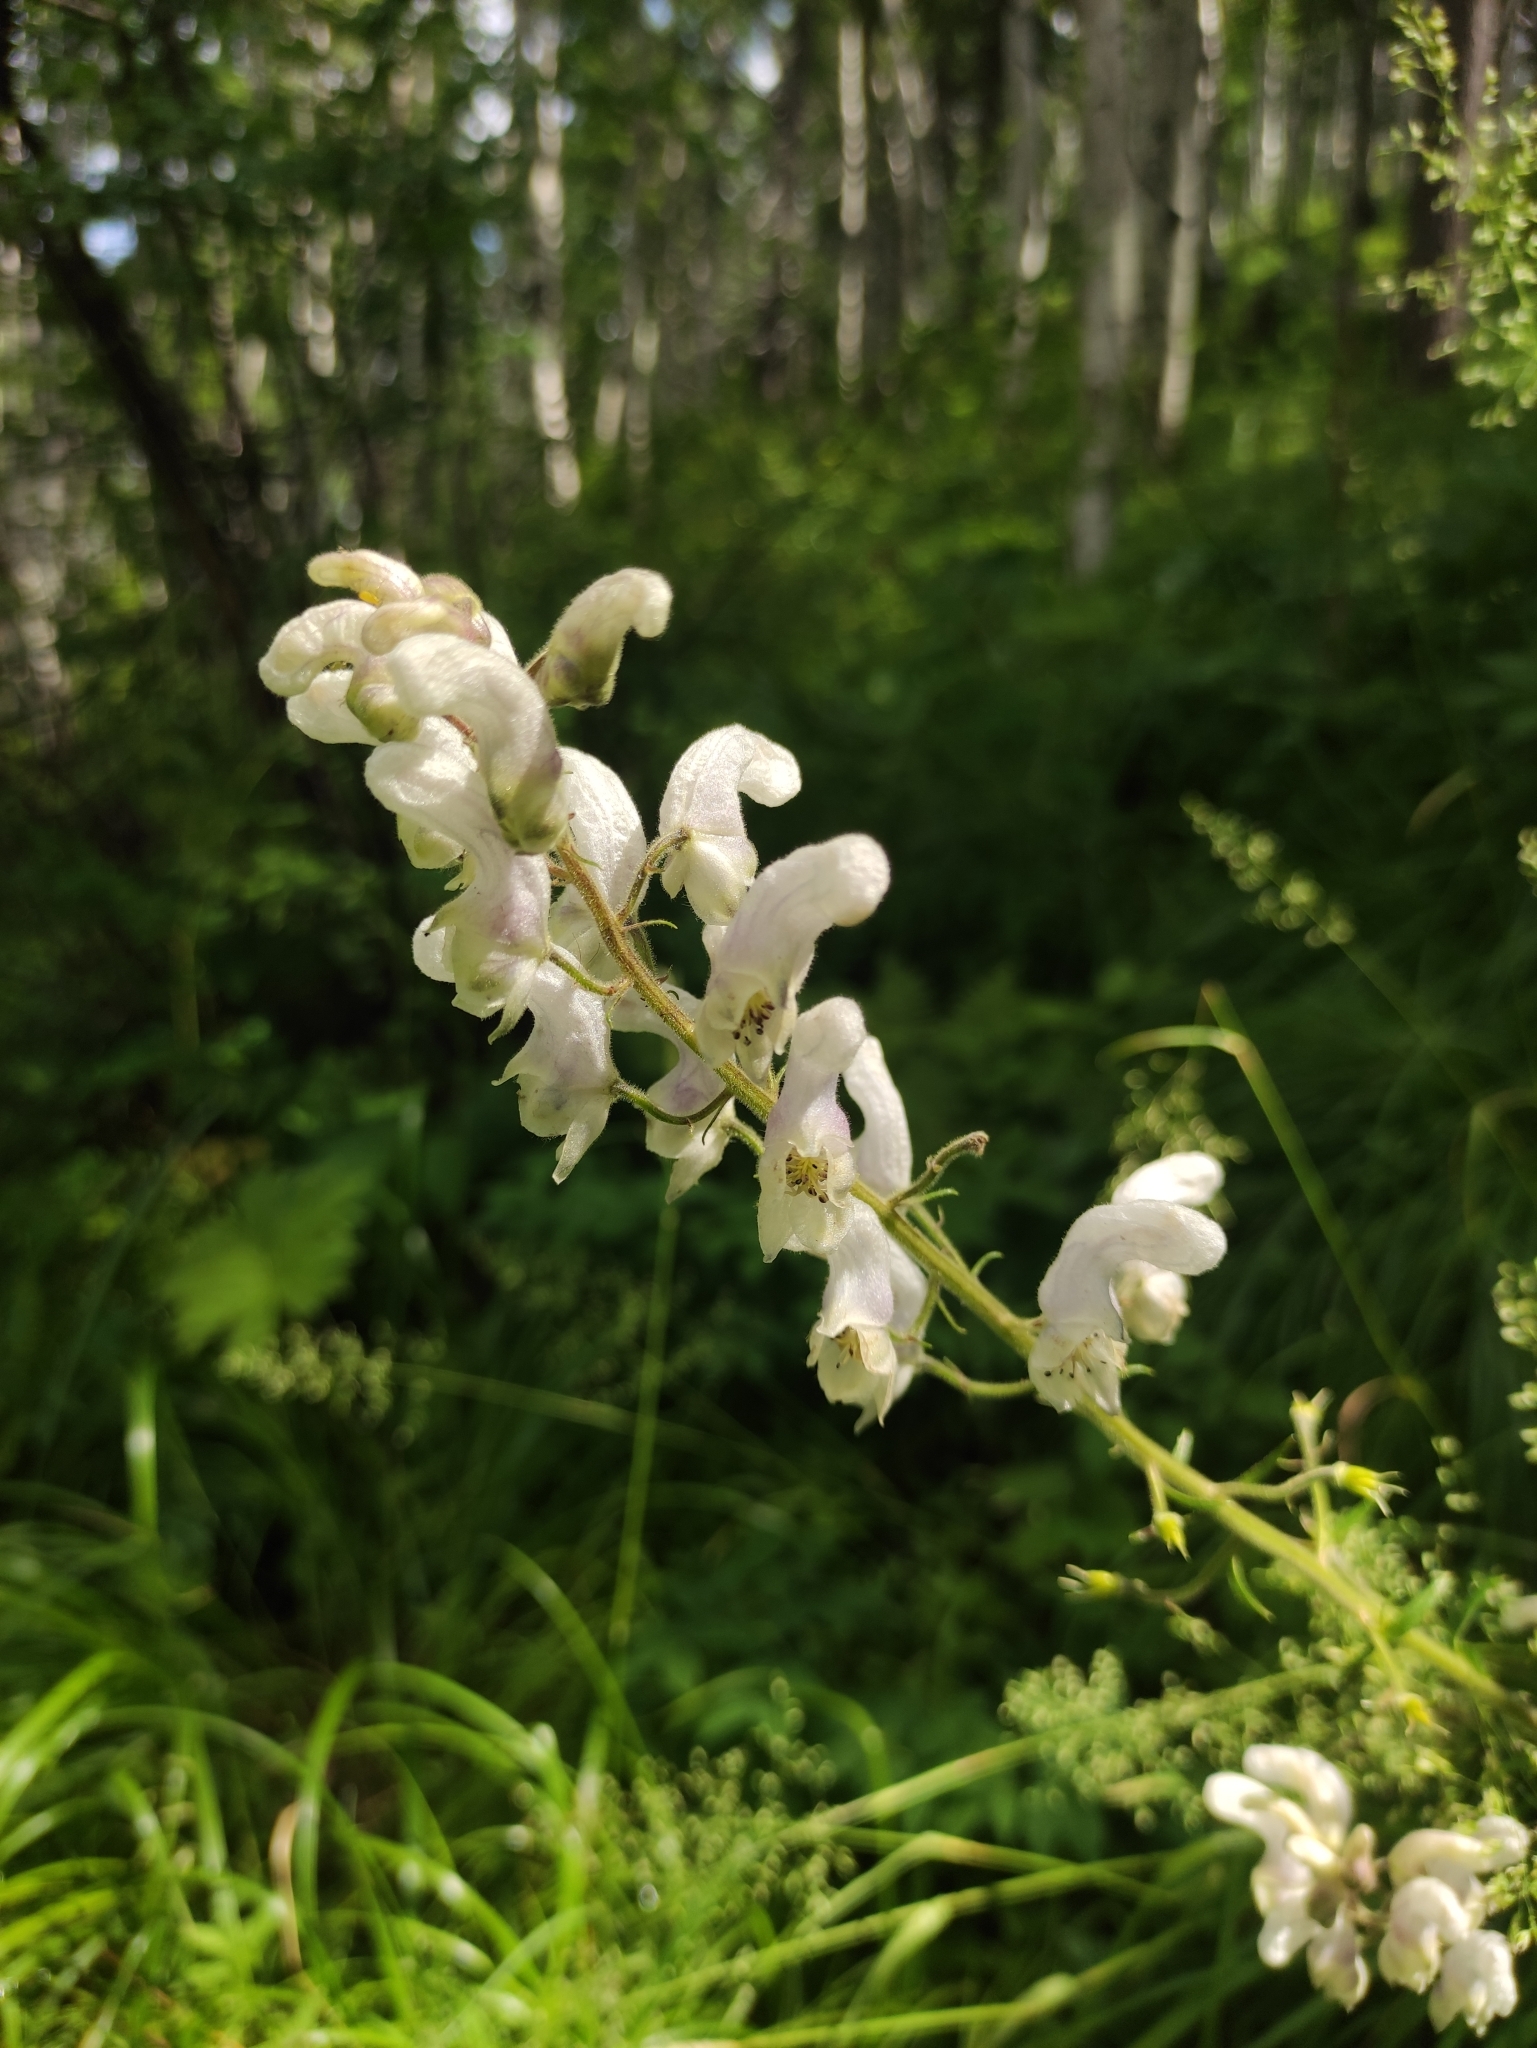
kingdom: Plantae
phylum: Tracheophyta
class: Magnoliopsida
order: Ranunculales
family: Ranunculaceae
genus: Aconitum
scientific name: Aconitum septentrionale
